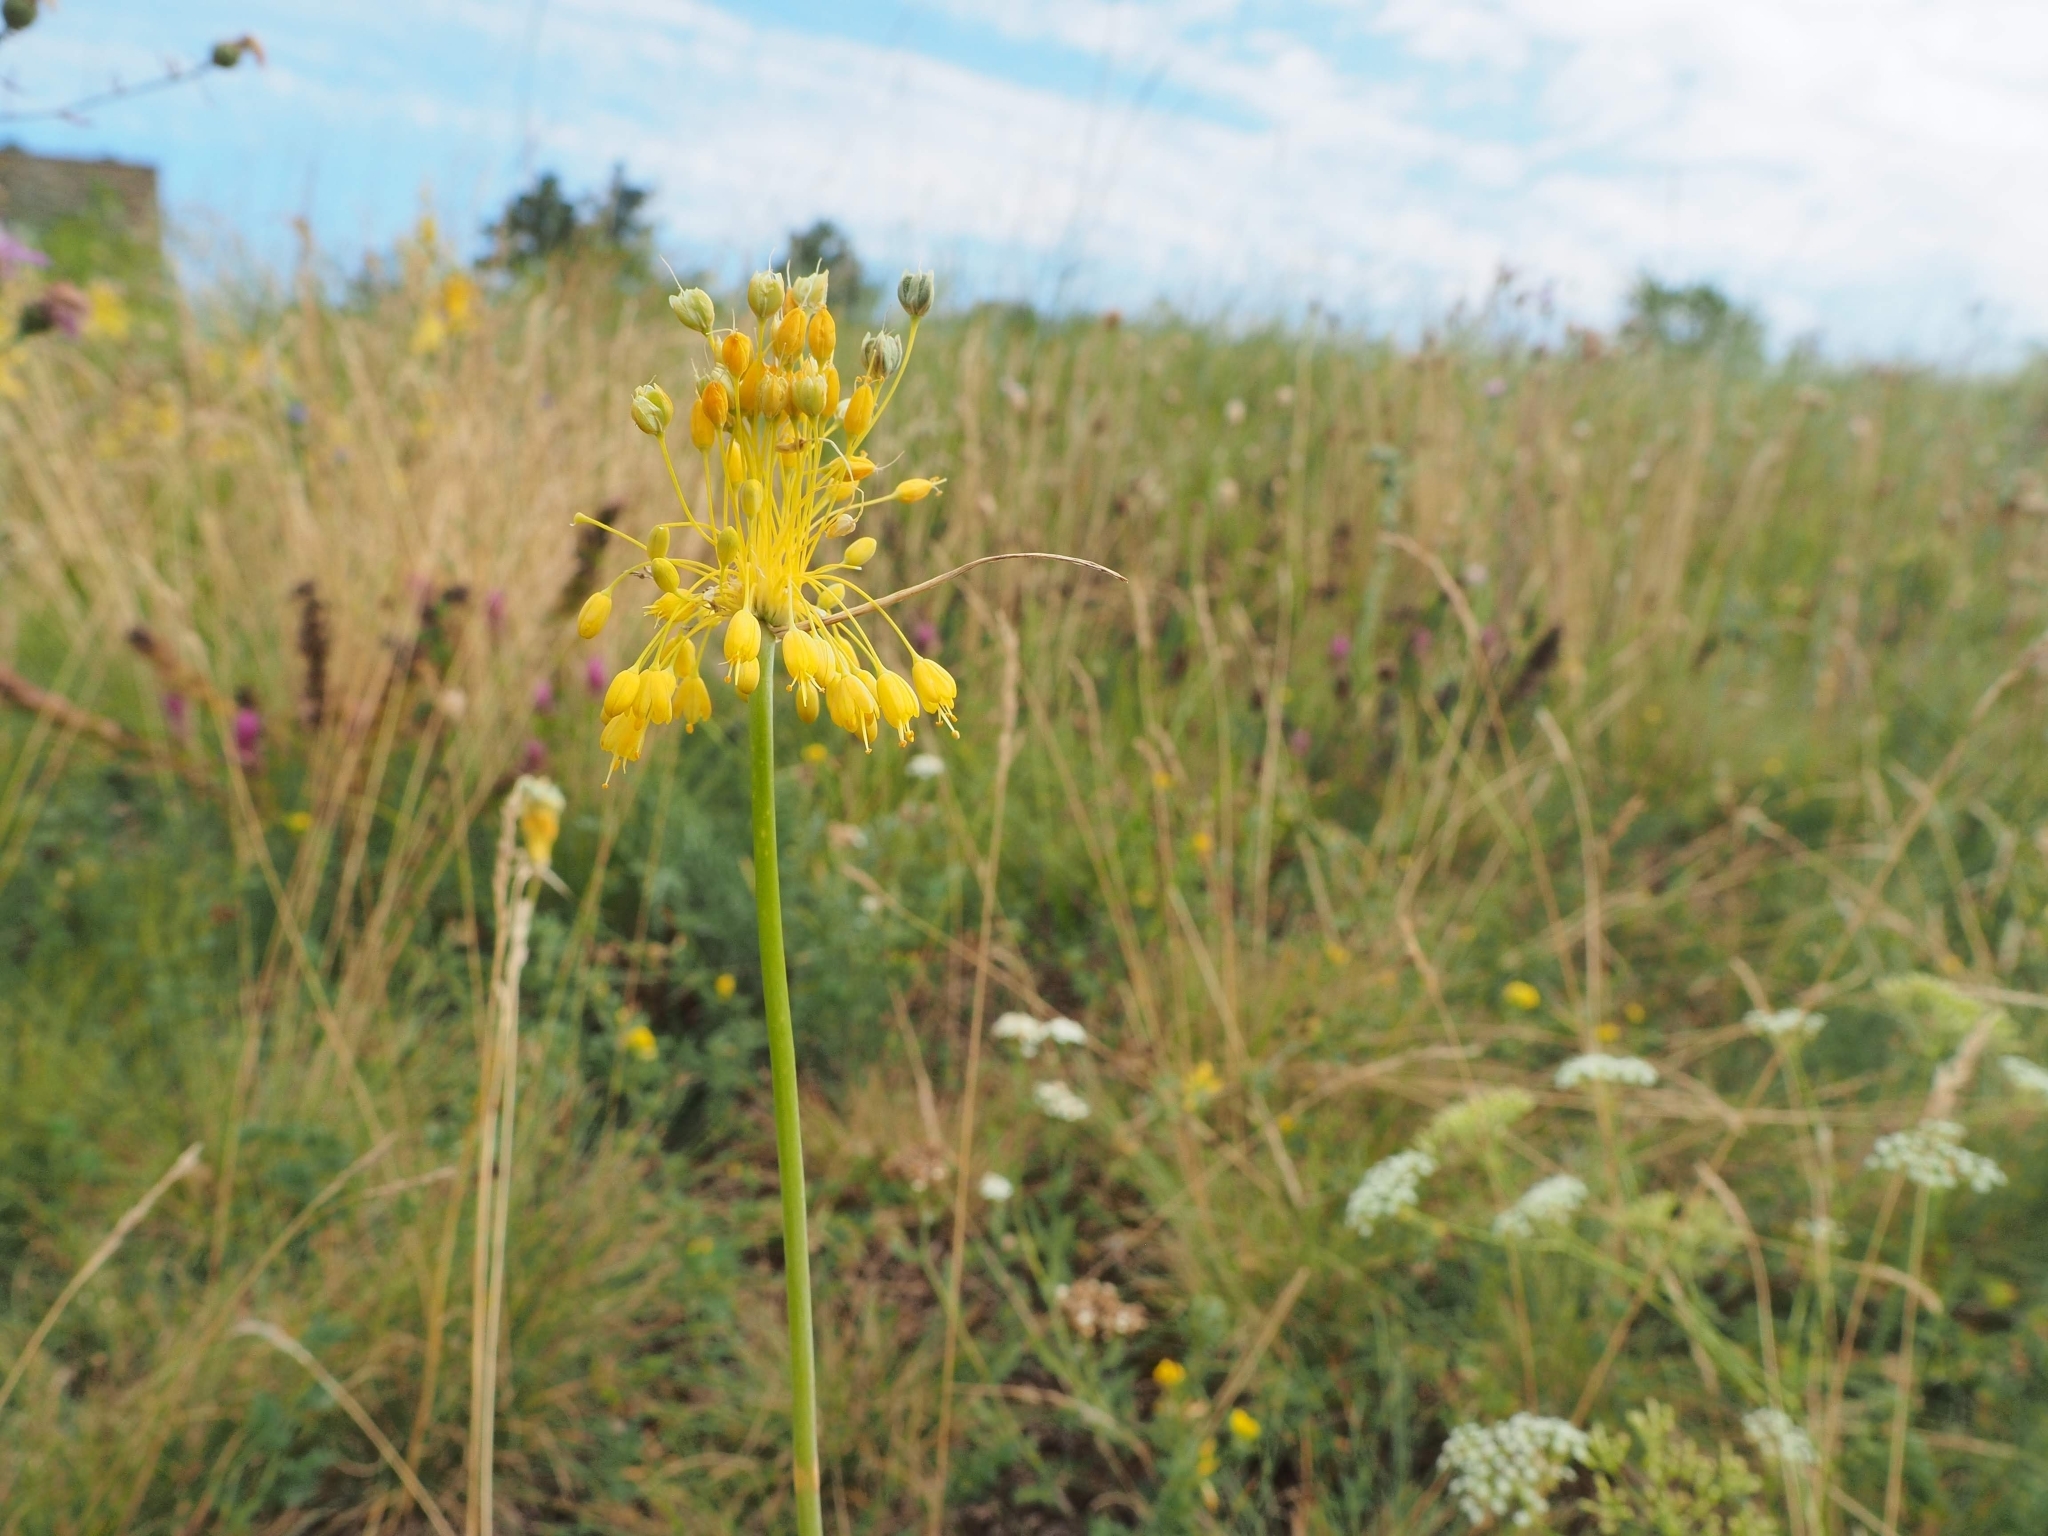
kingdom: Plantae
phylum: Tracheophyta
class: Liliopsida
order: Asparagales
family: Amaryllidaceae
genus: Allium
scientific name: Allium flavum
